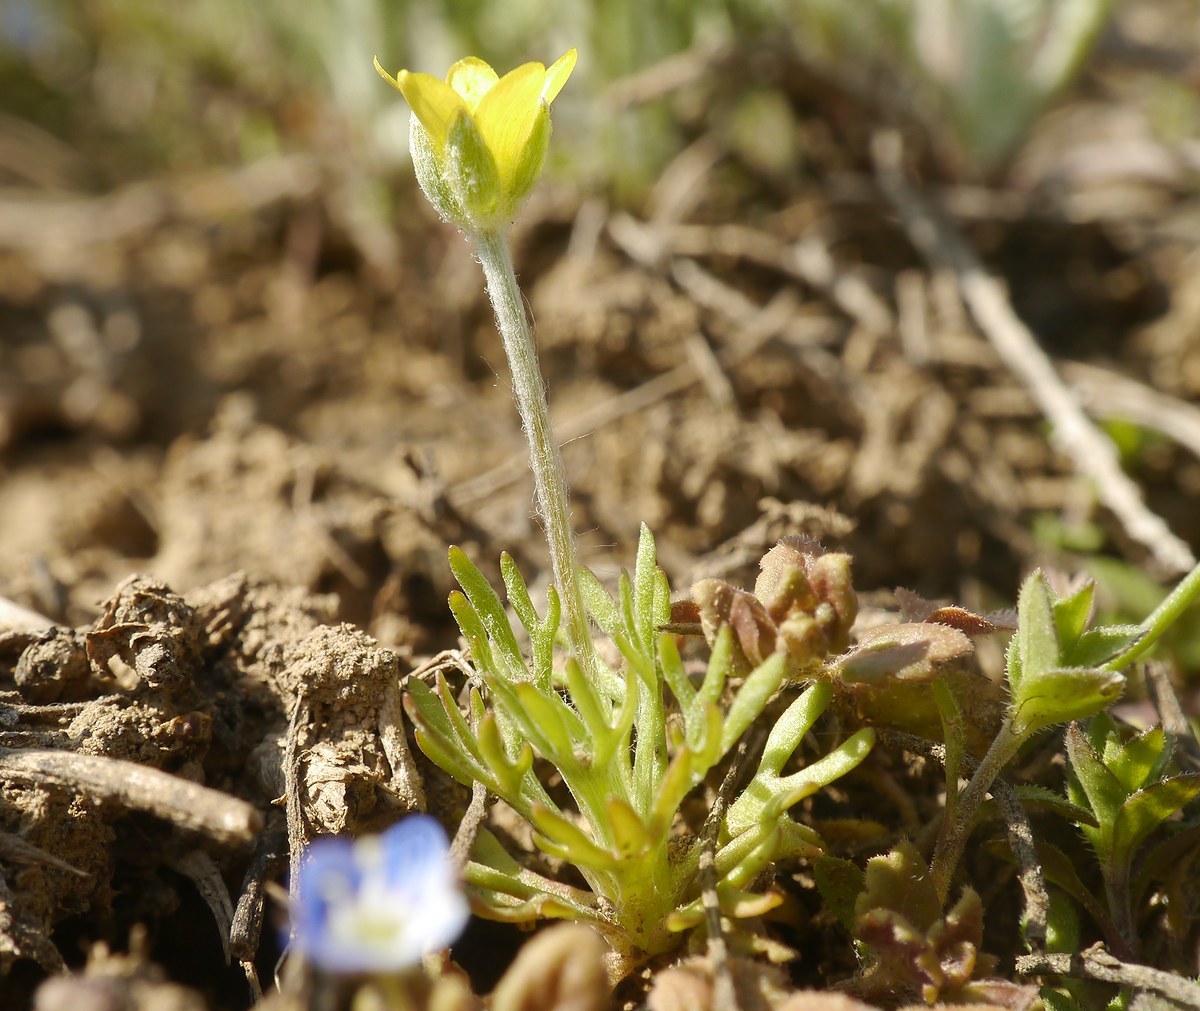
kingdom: Plantae
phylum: Tracheophyta
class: Magnoliopsida
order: Ranunculales
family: Ranunculaceae
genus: Ceratocephala
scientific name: Ceratocephala orthoceras
